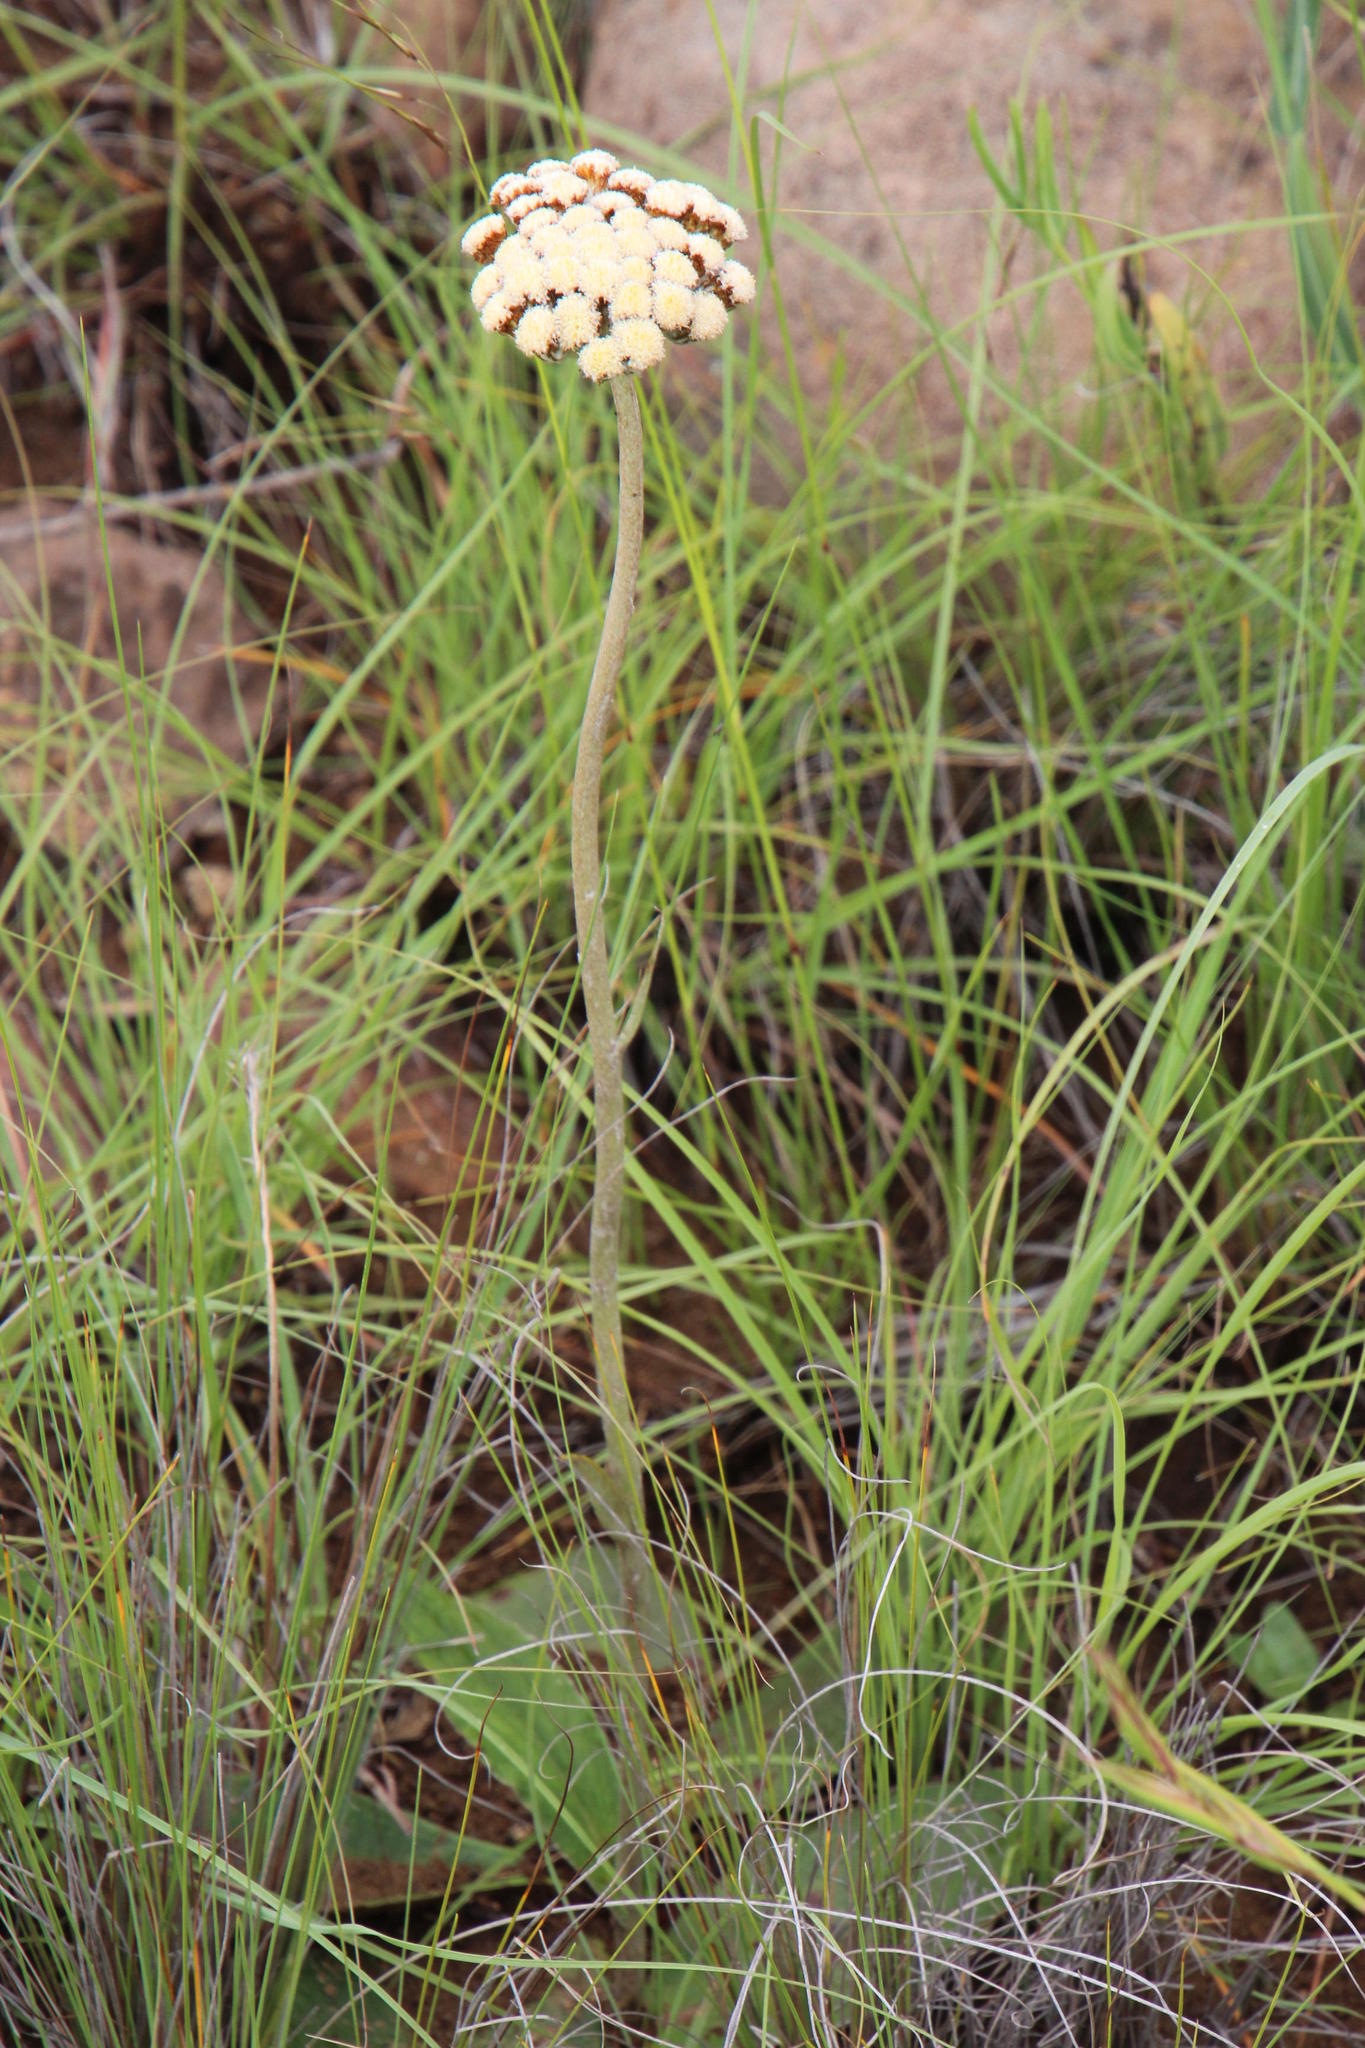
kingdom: Plantae
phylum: Tracheophyta
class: Magnoliopsida
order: Asterales
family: Asteraceae
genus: Helichrysum
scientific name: Helichrysum pedunculatum
